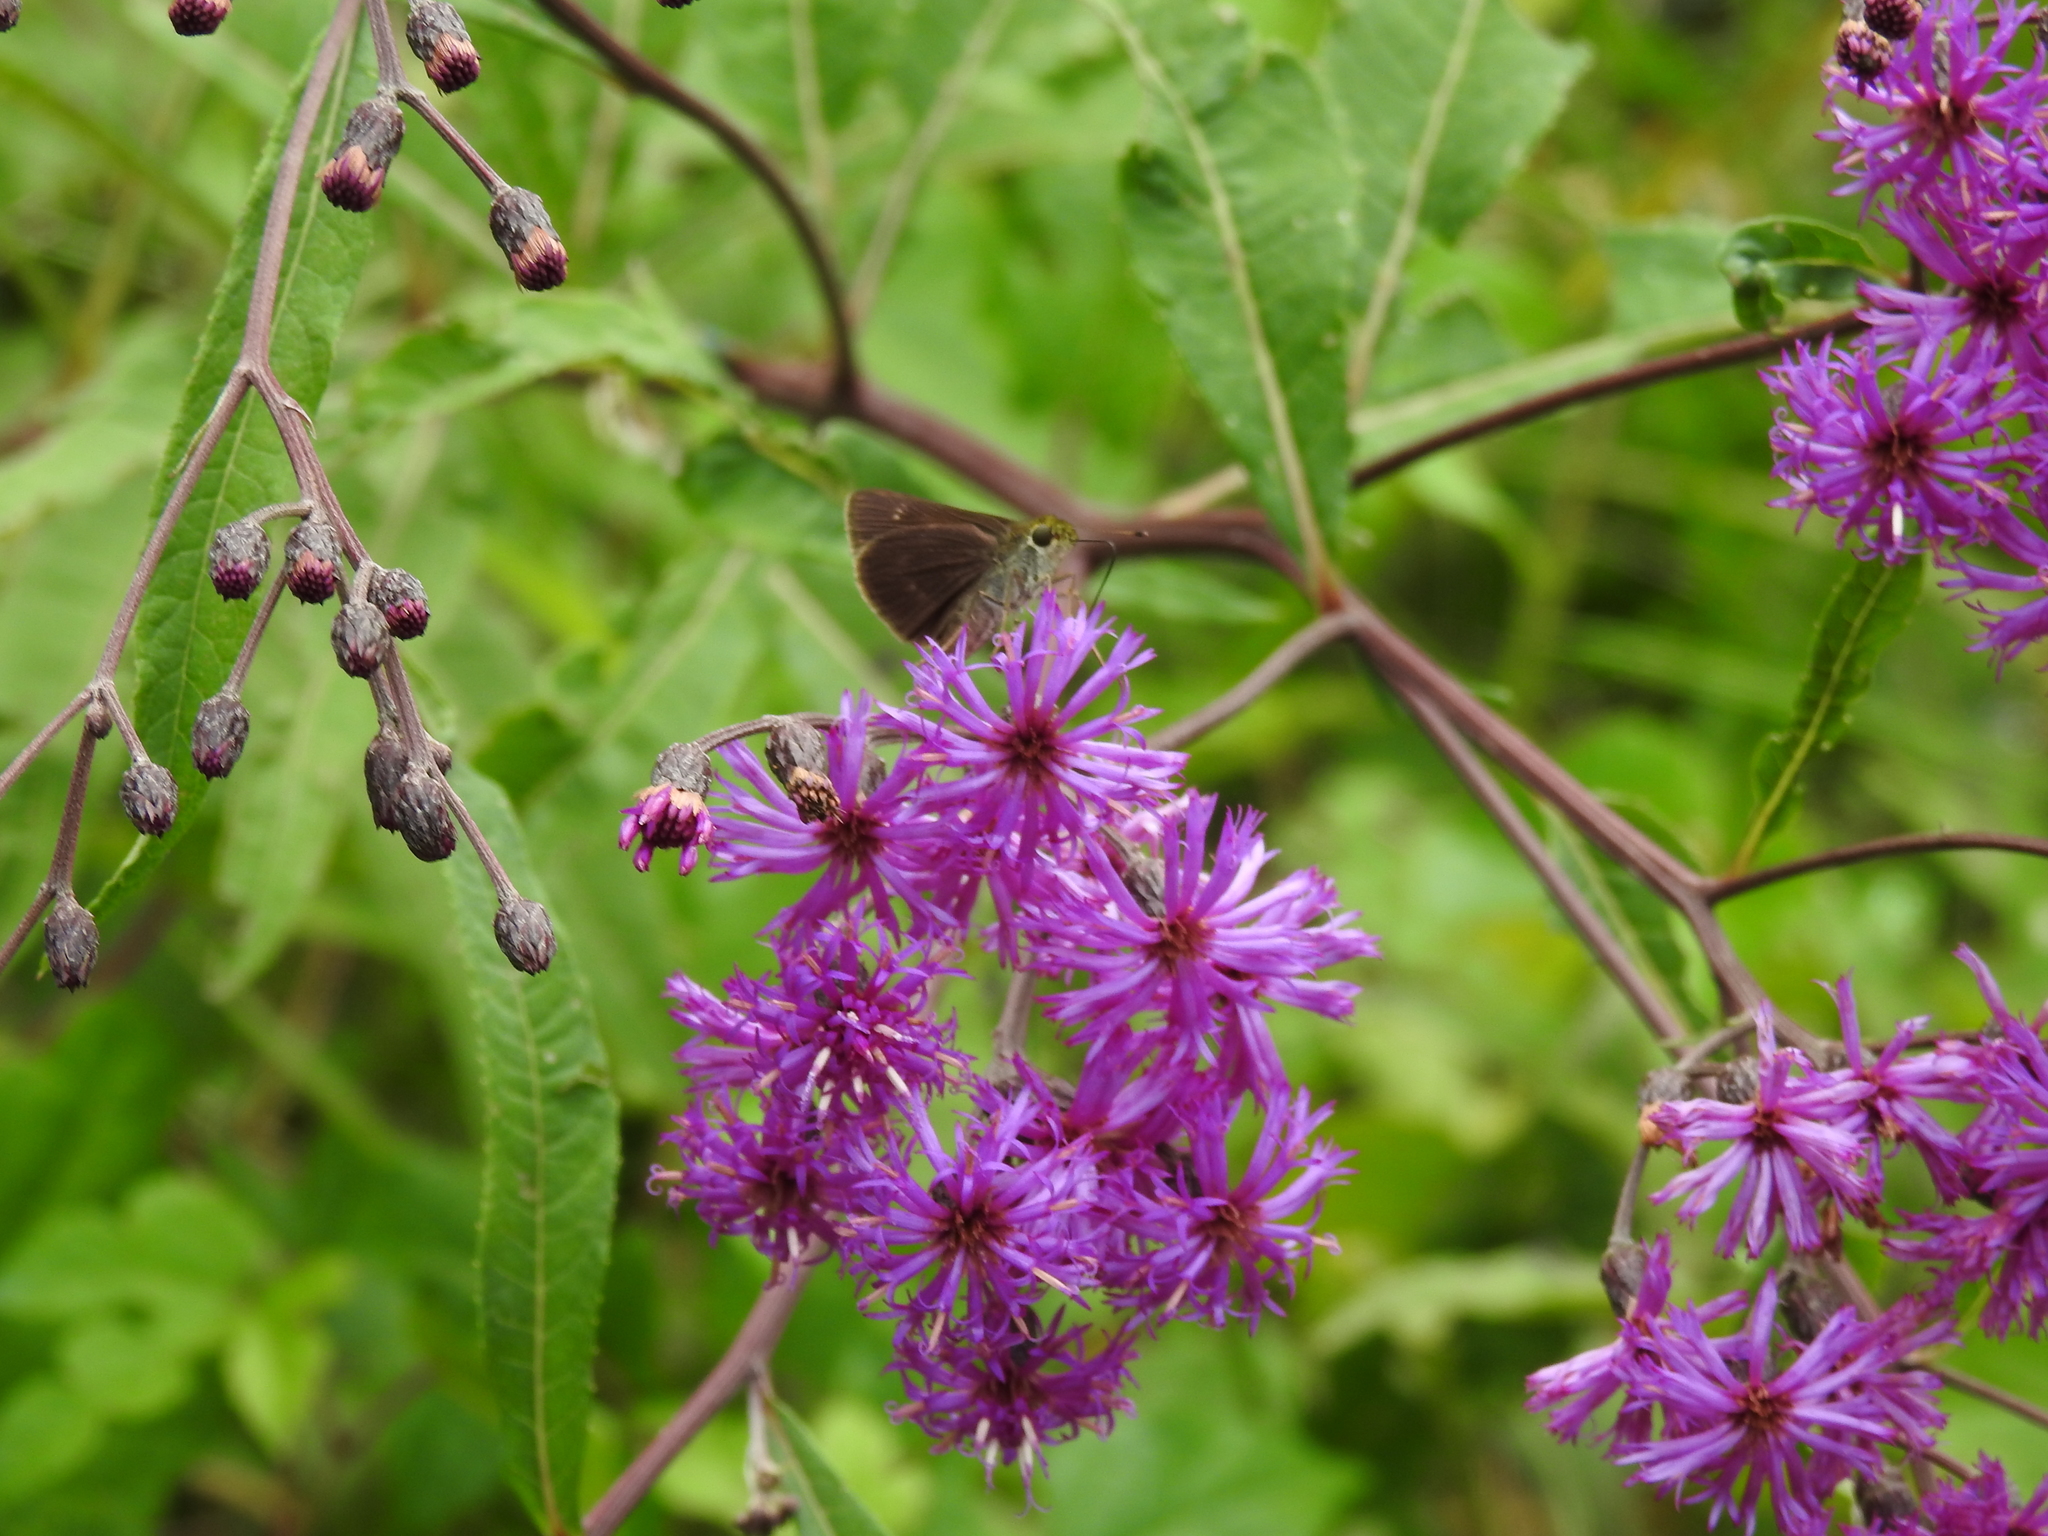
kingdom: Animalia
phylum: Arthropoda
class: Insecta
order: Lepidoptera
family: Hesperiidae
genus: Euphyes
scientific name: Euphyes vestris
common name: Dun skipper
